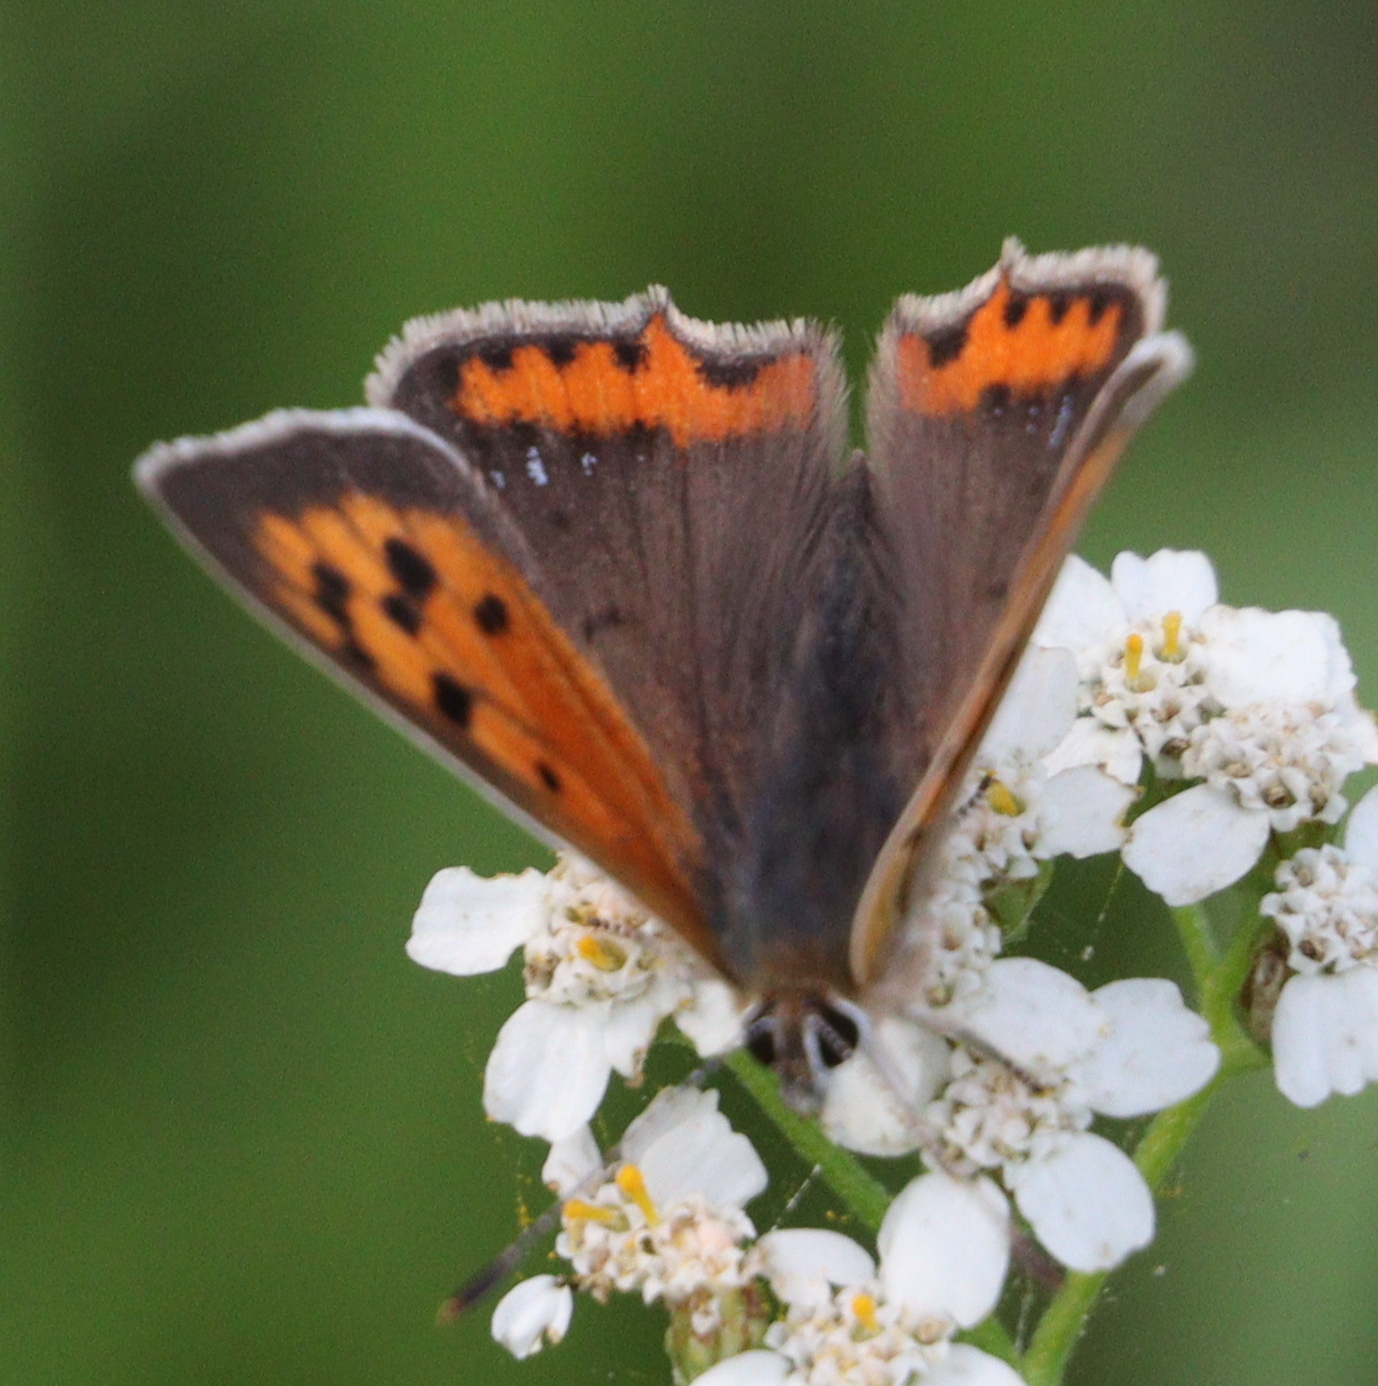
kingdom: Animalia
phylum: Arthropoda
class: Insecta
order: Lepidoptera
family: Lycaenidae
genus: Lycaena
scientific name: Lycaena phlaeas
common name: Small copper
